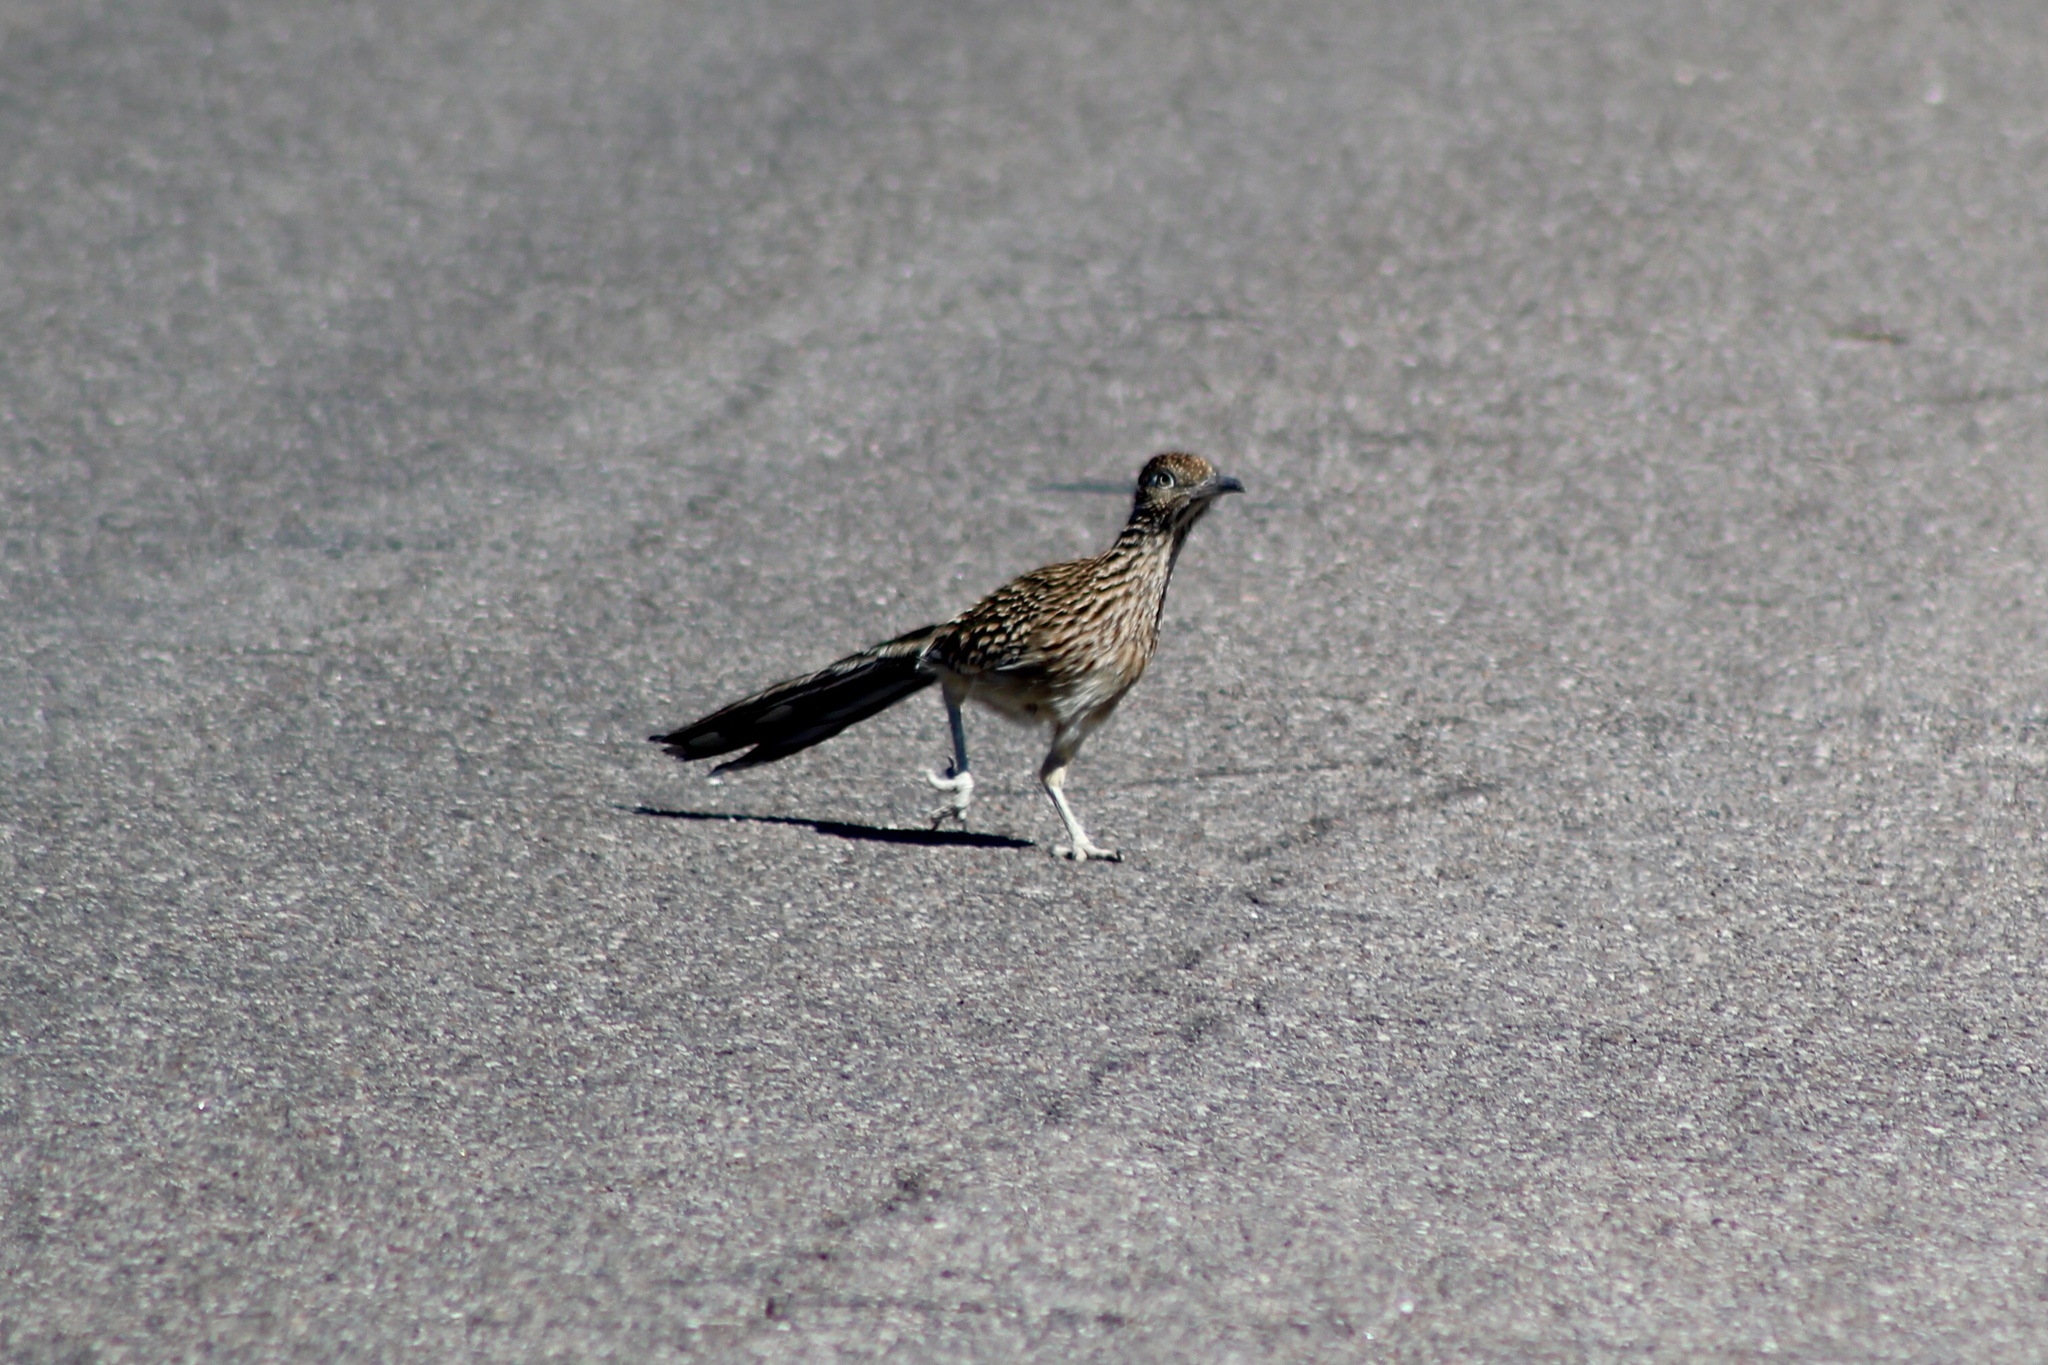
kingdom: Animalia
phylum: Chordata
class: Aves
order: Cuculiformes
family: Cuculidae
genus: Geococcyx
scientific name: Geococcyx californianus
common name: Greater roadrunner
